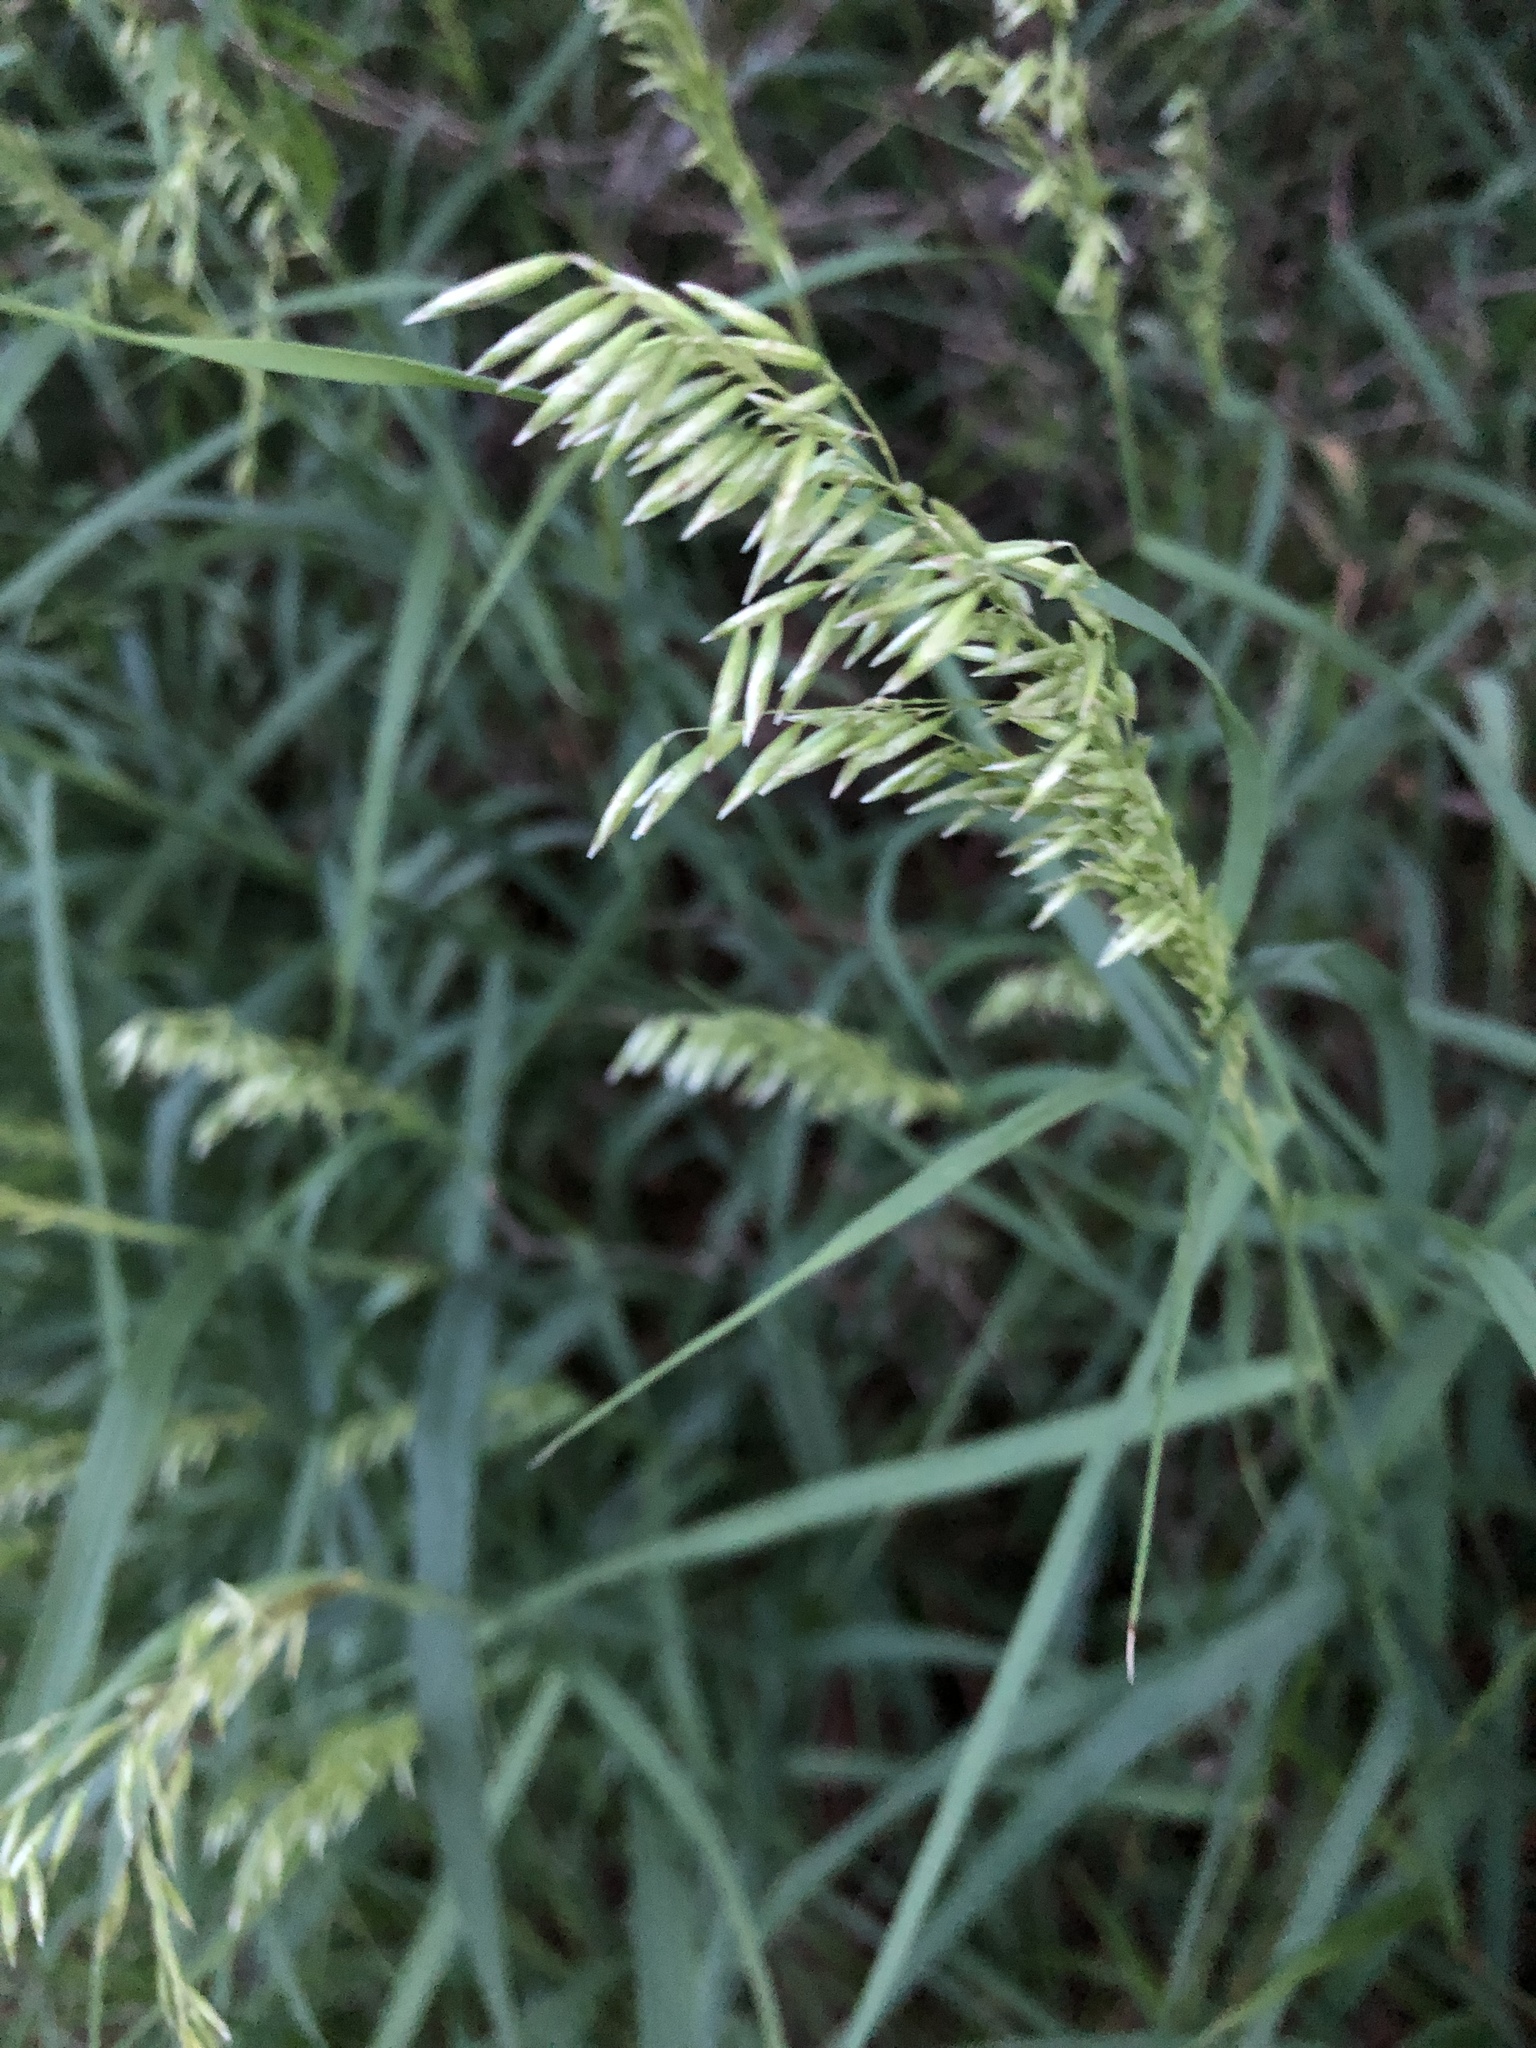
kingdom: Plantae
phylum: Tracheophyta
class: Liliopsida
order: Poales
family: Poaceae
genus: Melica
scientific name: Melica nitens
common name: Three-flower melic
